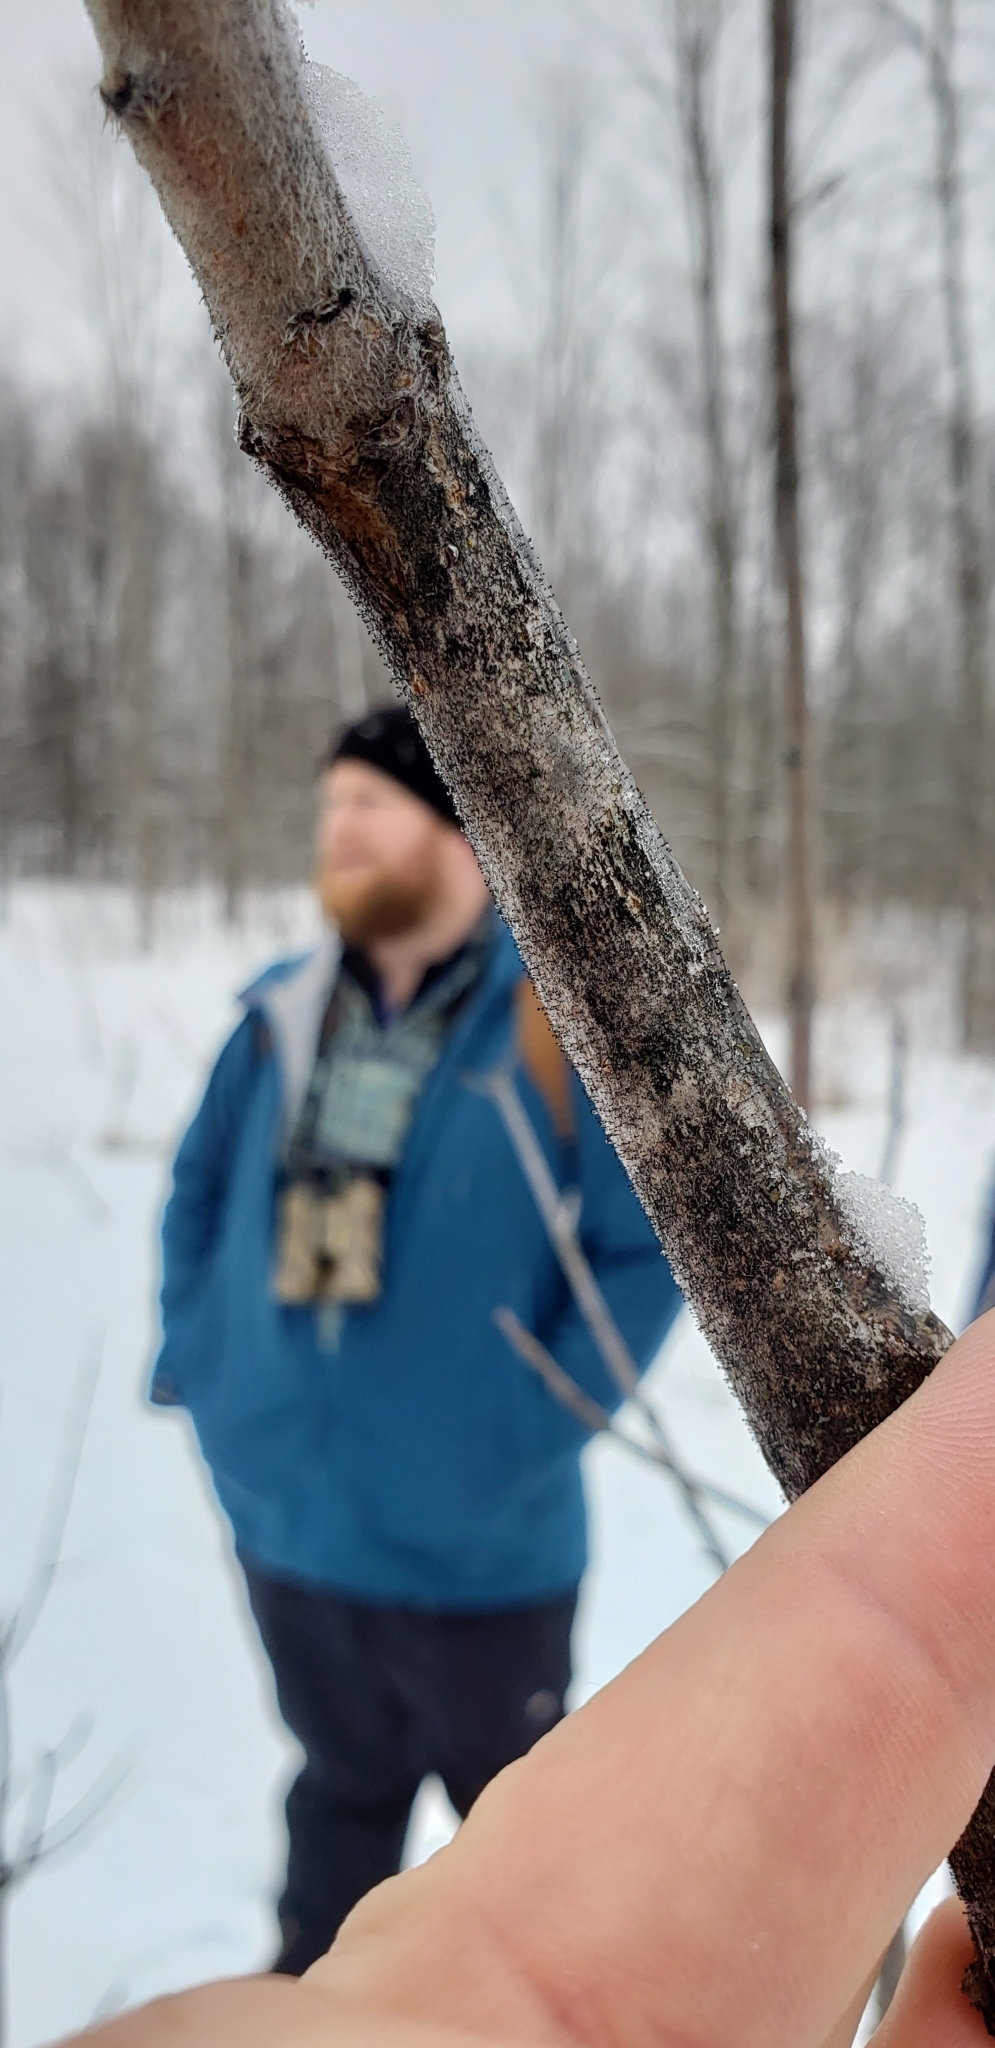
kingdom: Fungi
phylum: Ascomycota
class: Eurotiomycetes
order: Mycocaliciales
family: Mycocaliciaceae
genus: Phaeocalicium
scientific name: Phaeocalicium curtisii
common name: Sumac needles
